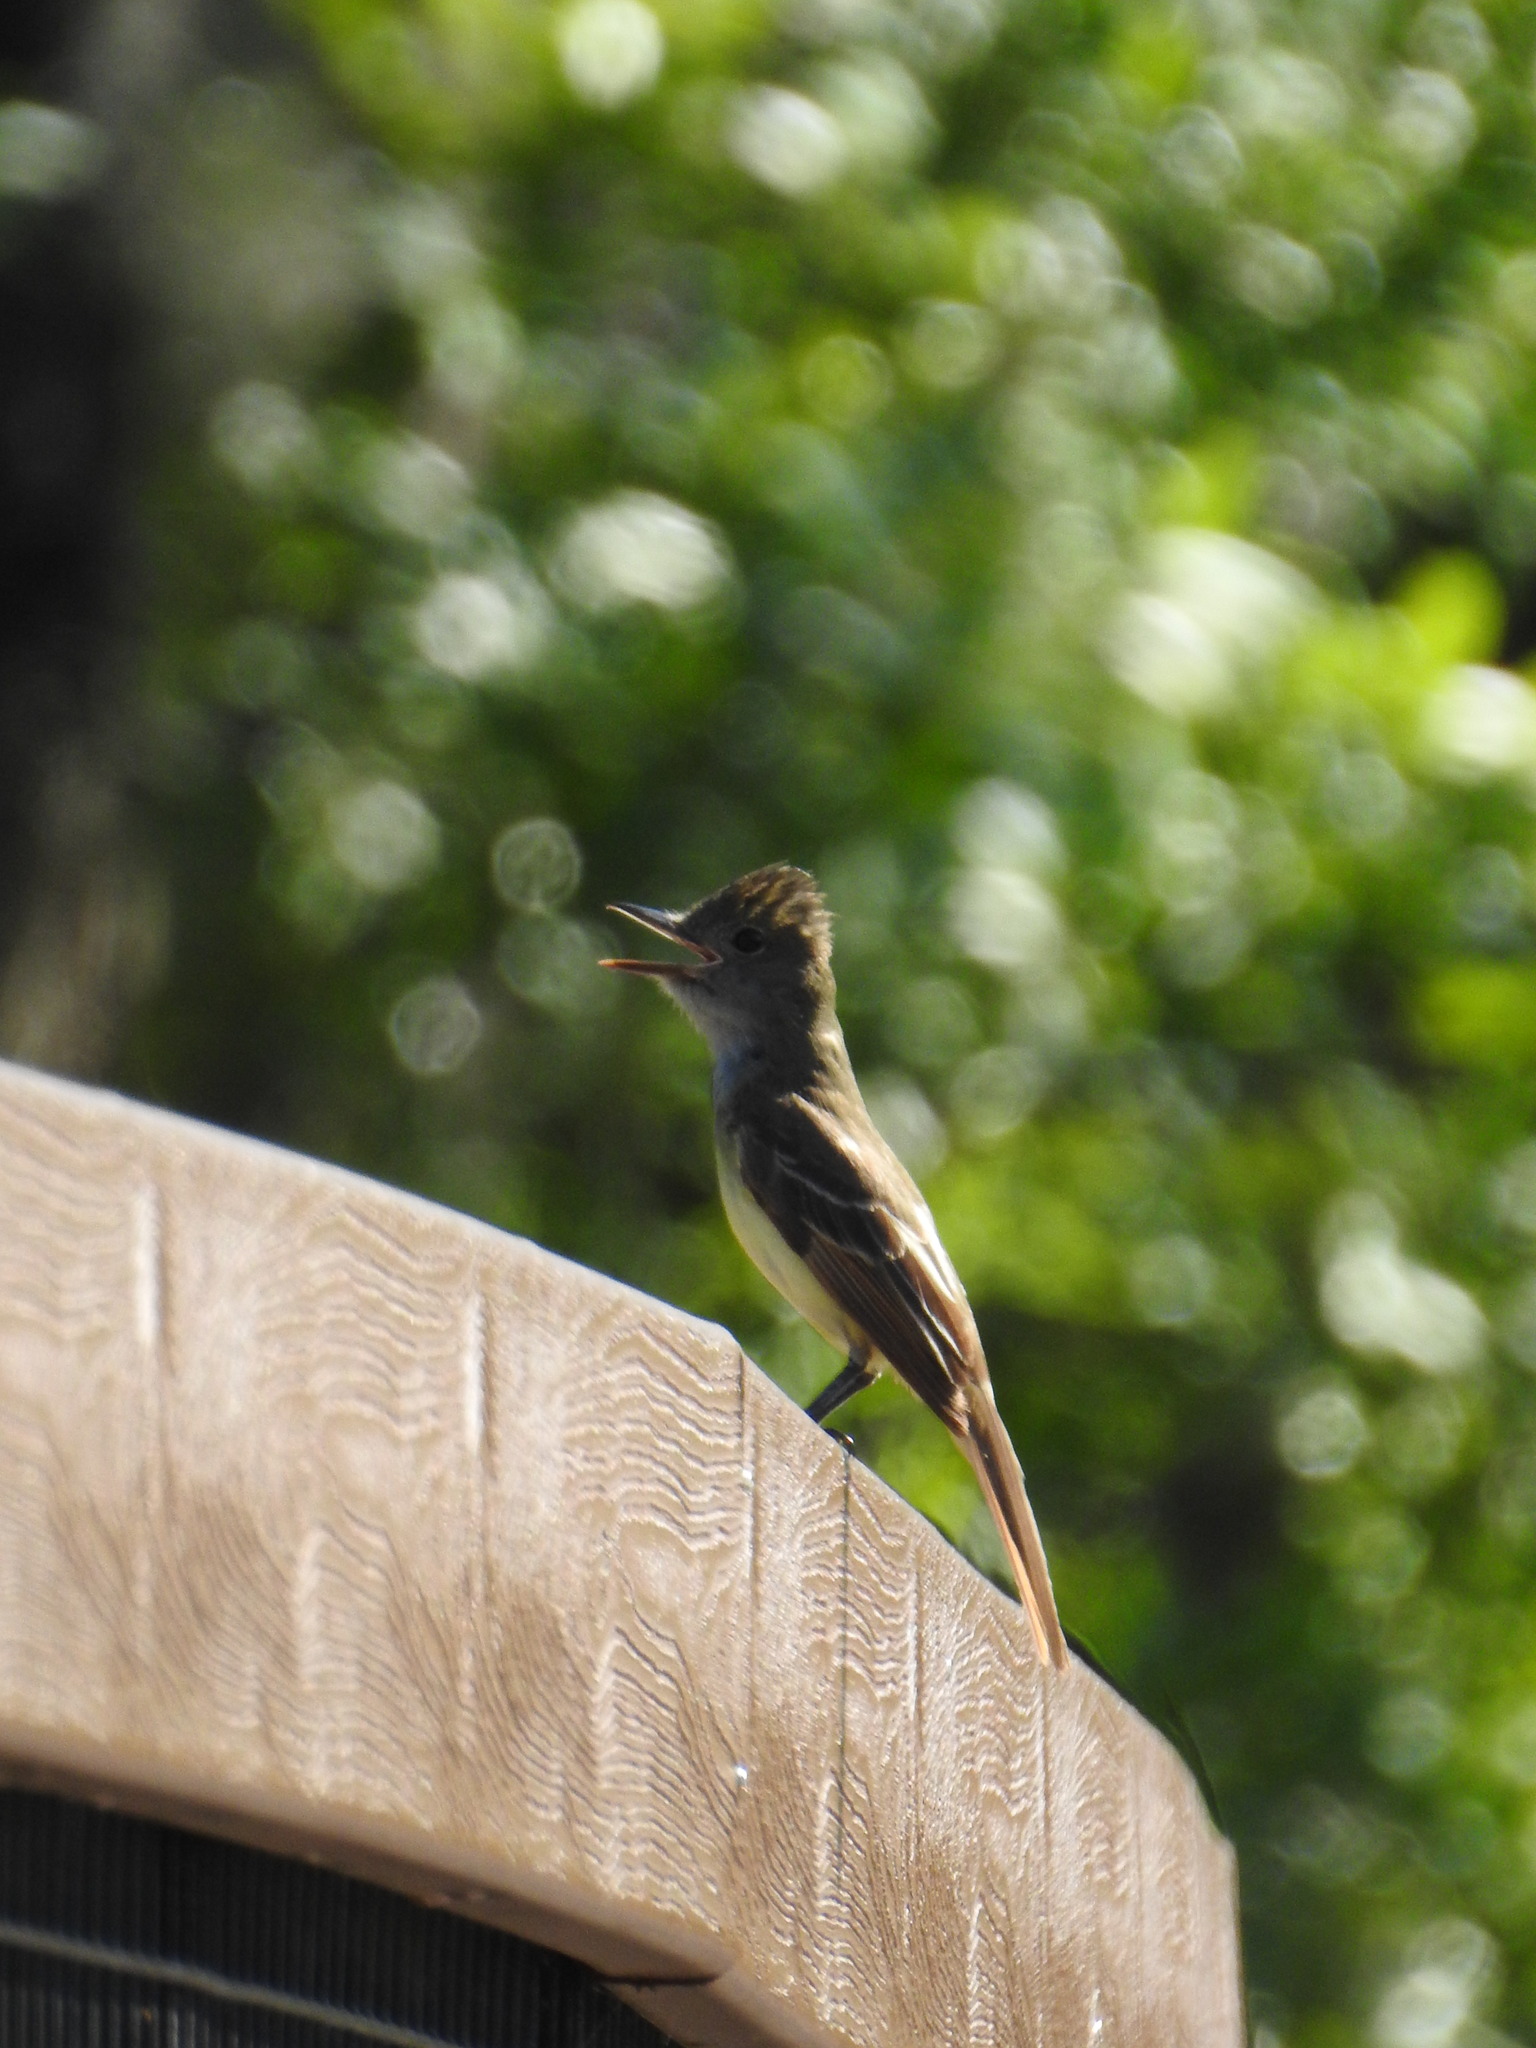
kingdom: Animalia
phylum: Chordata
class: Aves
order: Passeriformes
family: Tyrannidae
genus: Myiarchus
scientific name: Myiarchus crinitus
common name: Great crested flycatcher
